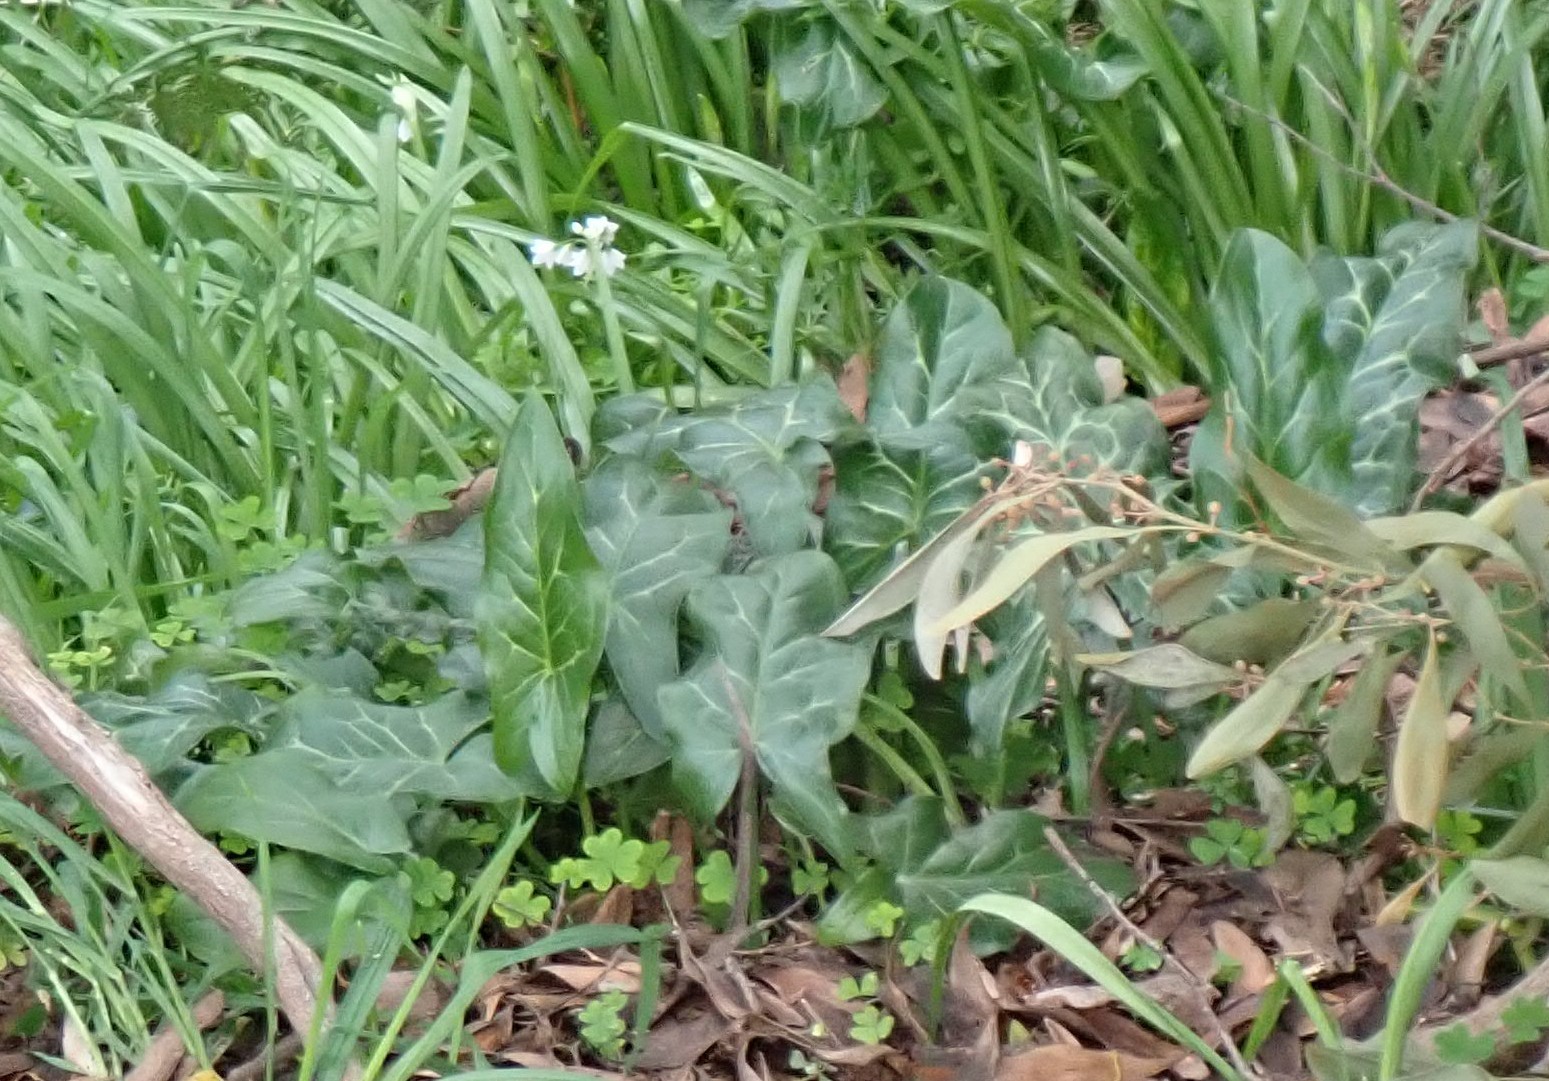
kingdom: Plantae
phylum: Tracheophyta
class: Liliopsida
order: Alismatales
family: Araceae
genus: Arum
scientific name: Arum italicum
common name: Italian lords-and-ladies
